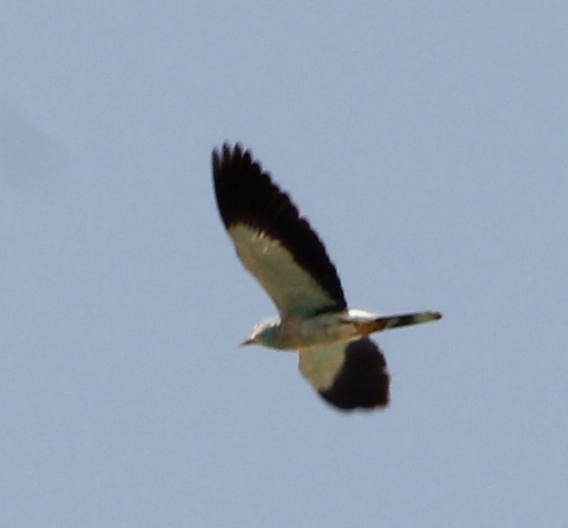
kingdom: Animalia
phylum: Chordata
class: Aves
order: Coraciiformes
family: Coraciidae
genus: Coracias
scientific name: Coracias garrulus
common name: European roller
